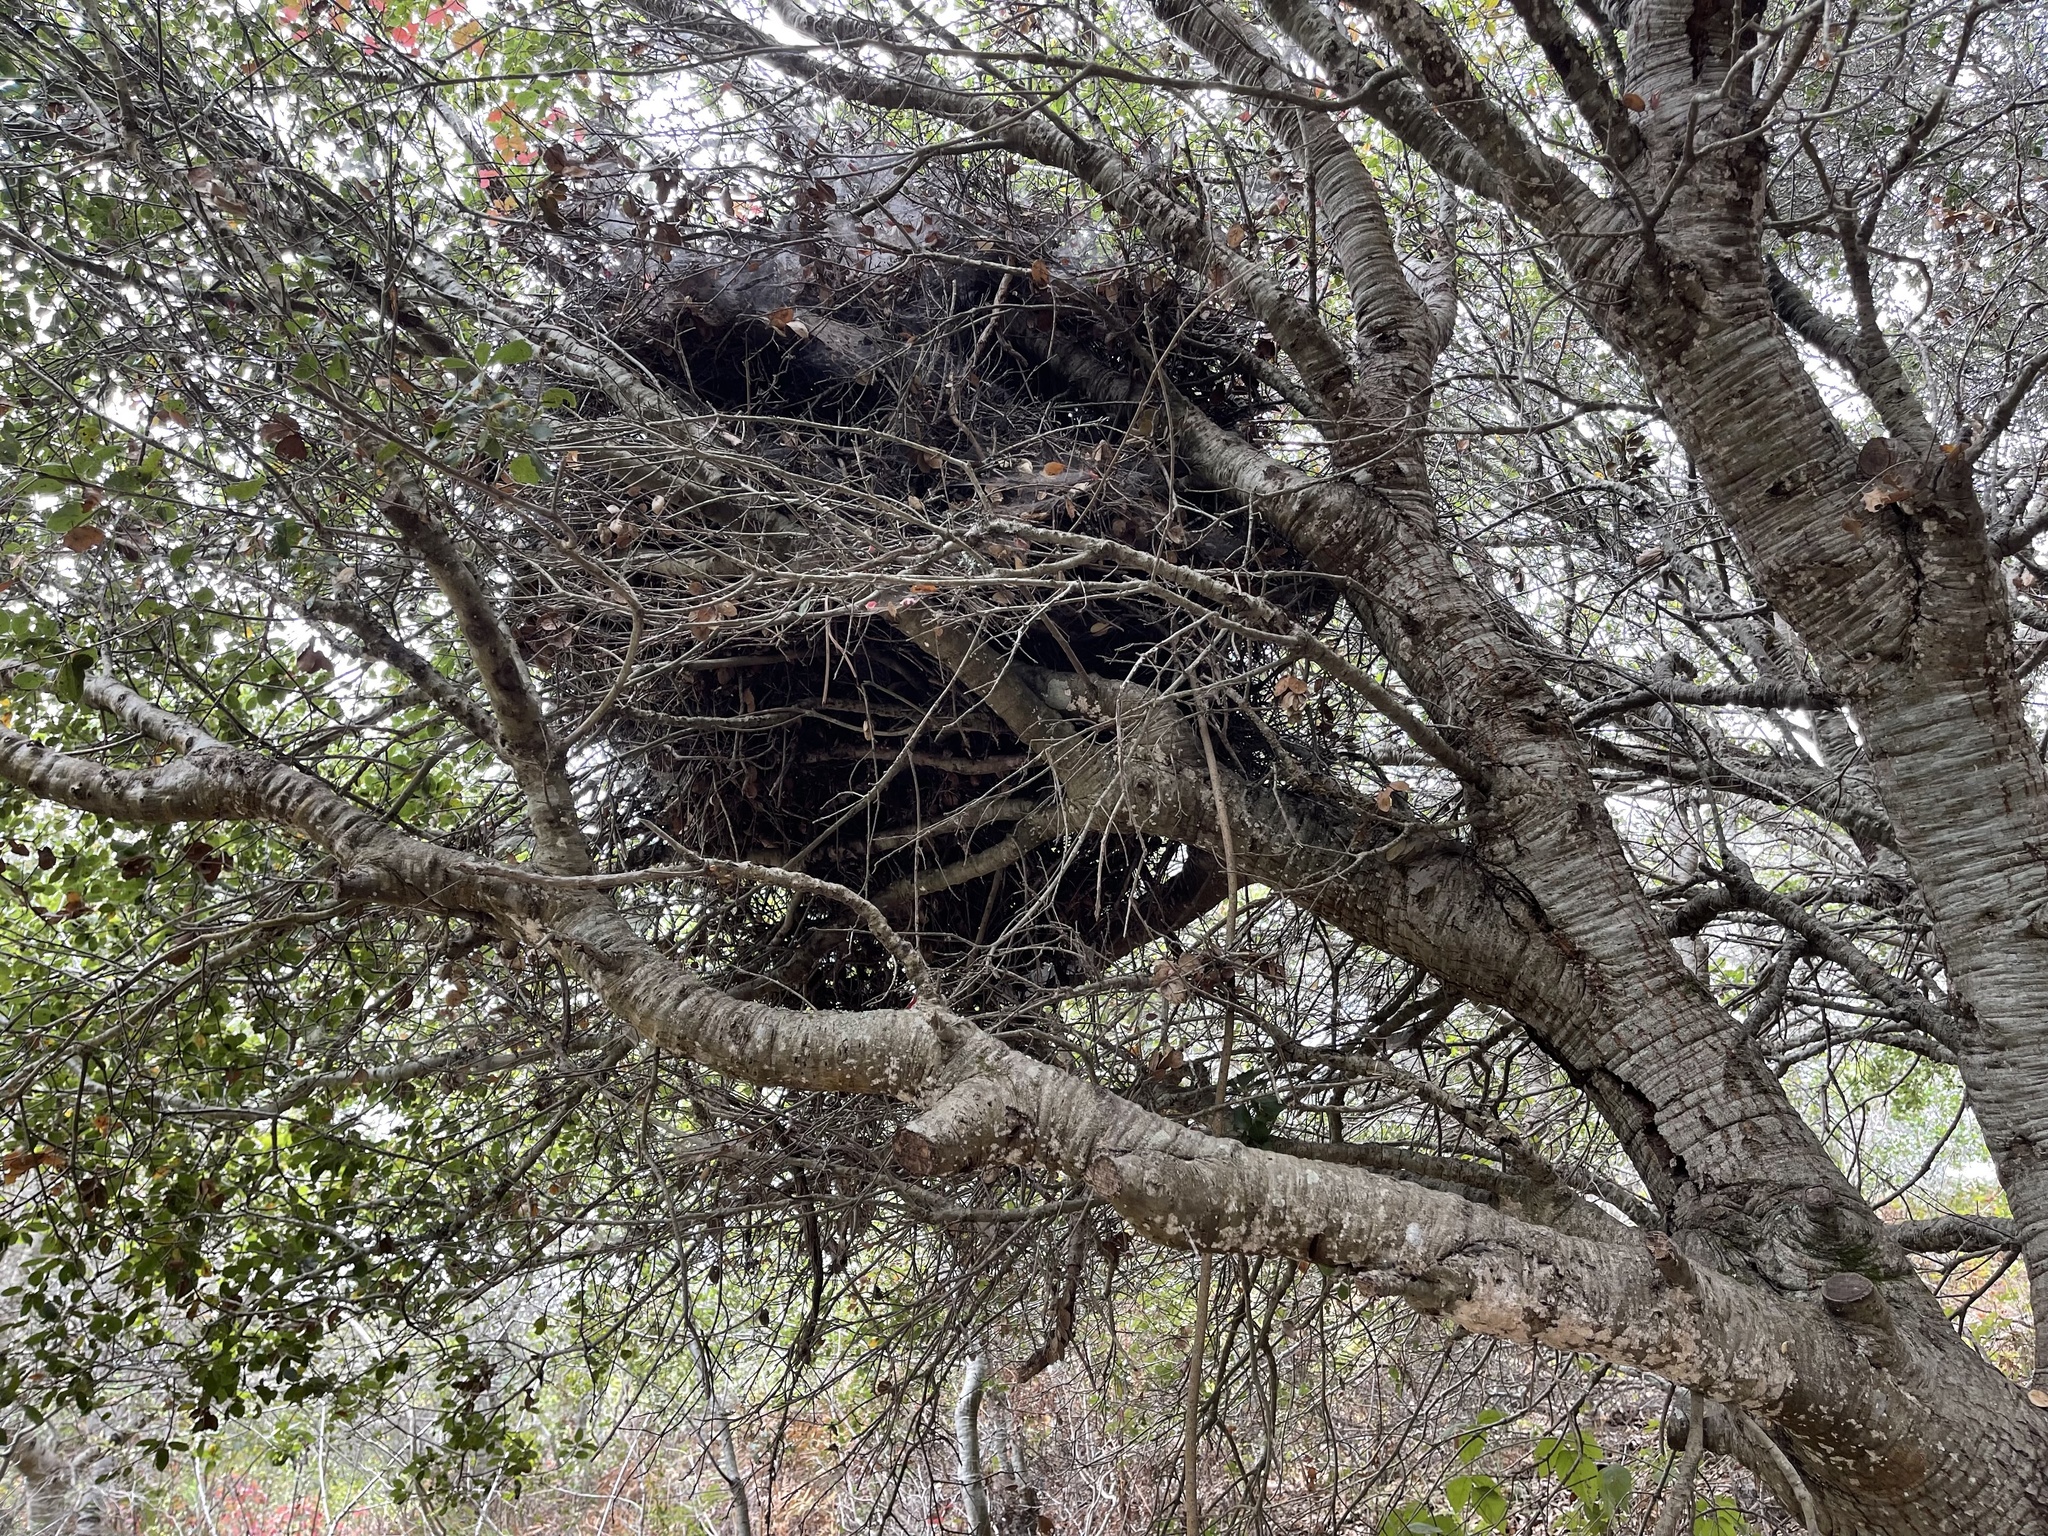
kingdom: Animalia
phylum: Chordata
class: Mammalia
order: Rodentia
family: Cricetidae
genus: Neotoma
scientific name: Neotoma fuscipes
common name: Dusky-footed woodrat
